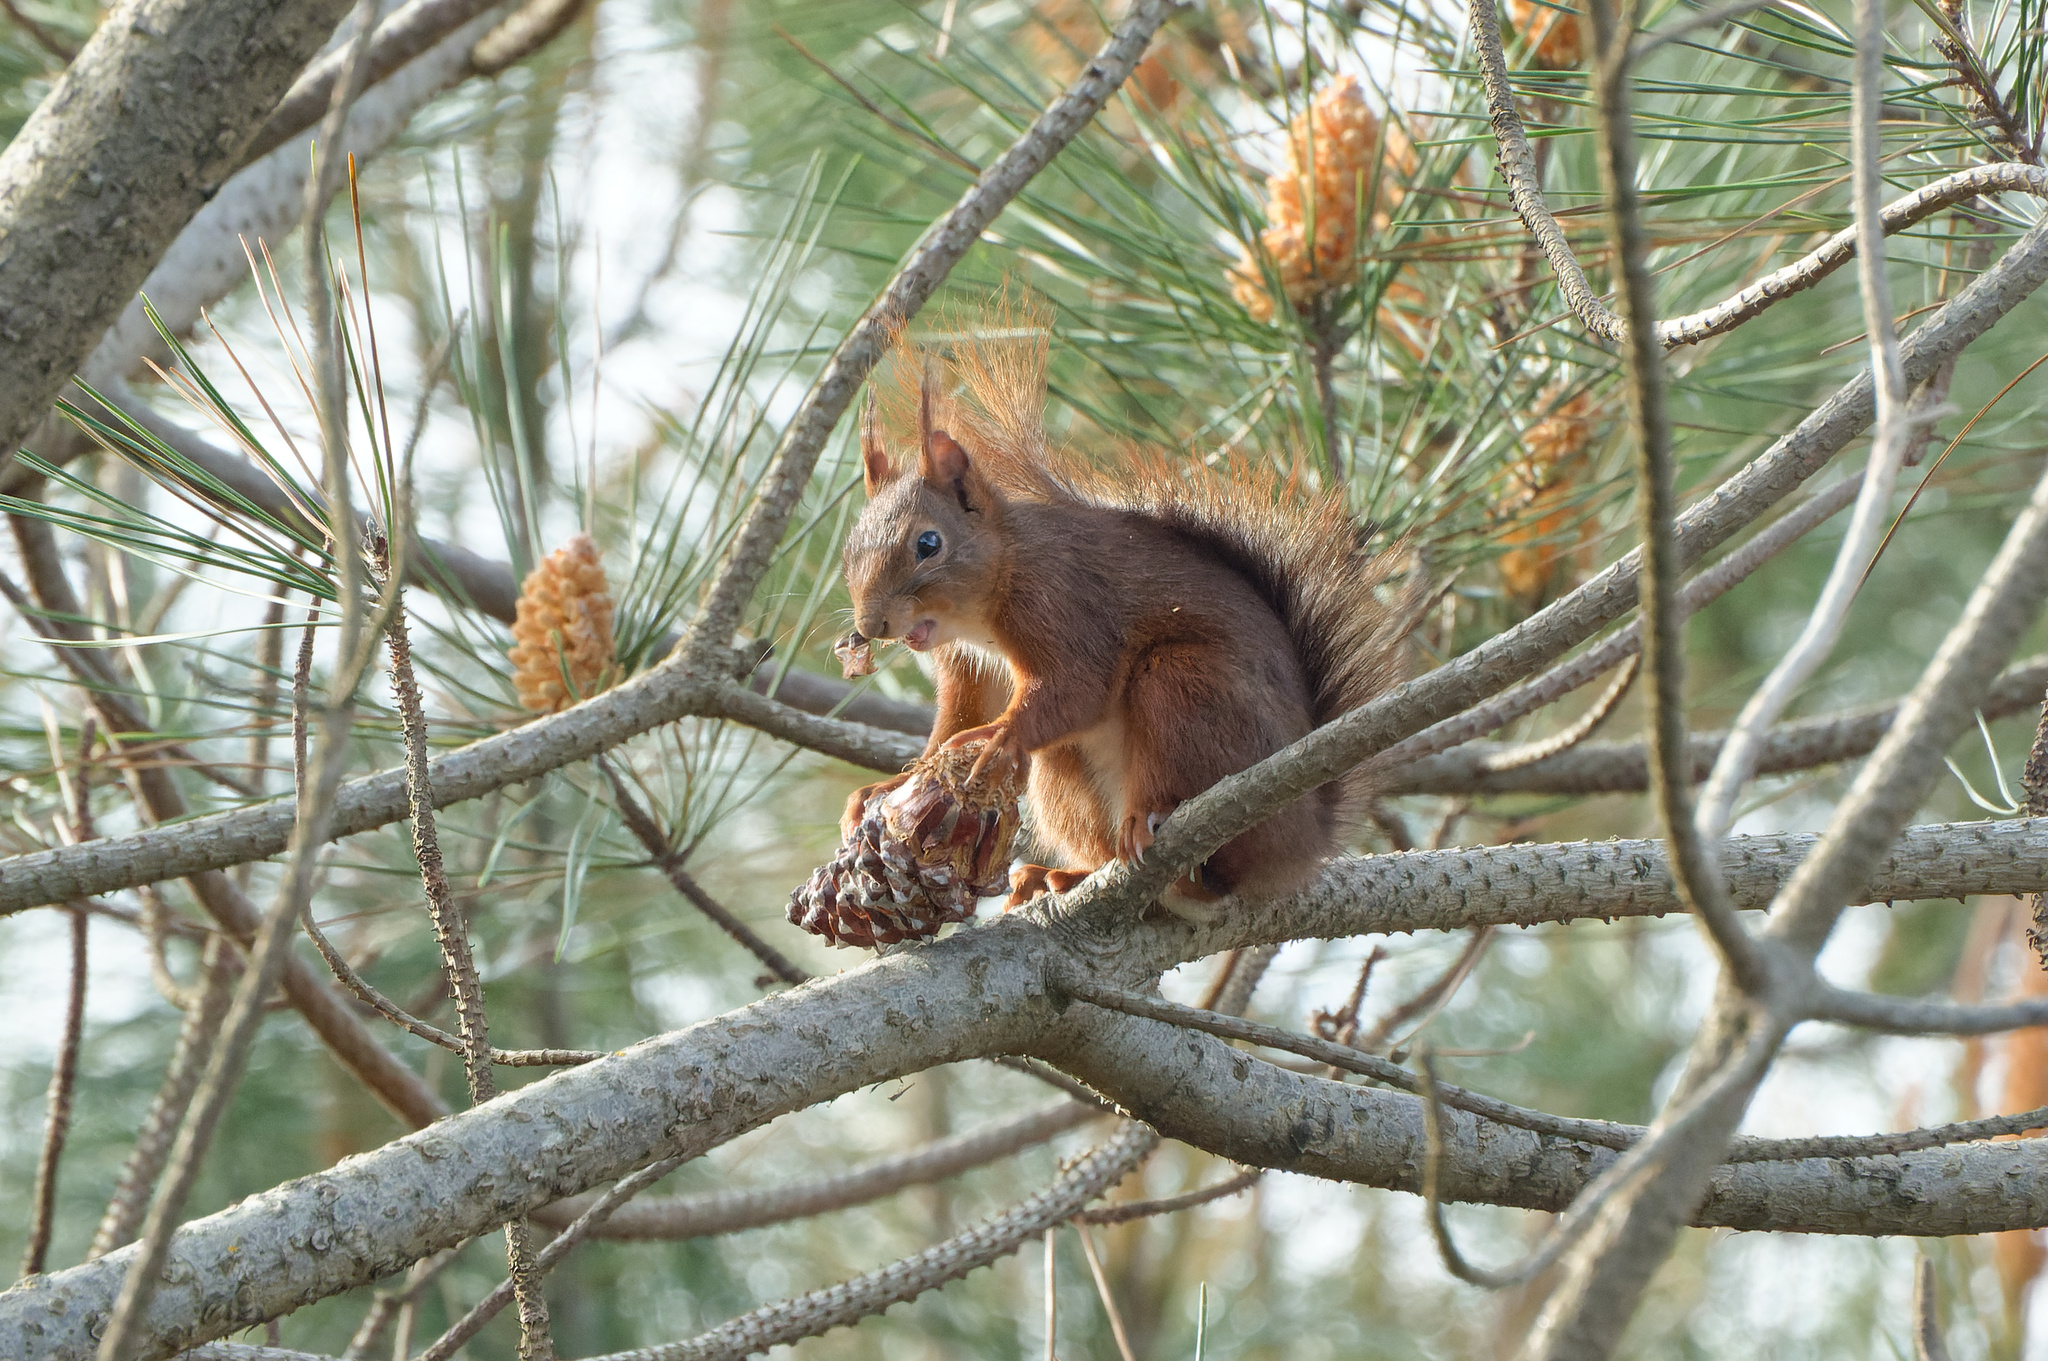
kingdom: Animalia
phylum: Chordata
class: Mammalia
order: Rodentia
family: Sciuridae
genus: Sciurus
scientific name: Sciurus vulgaris
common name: Eurasian red squirrel
